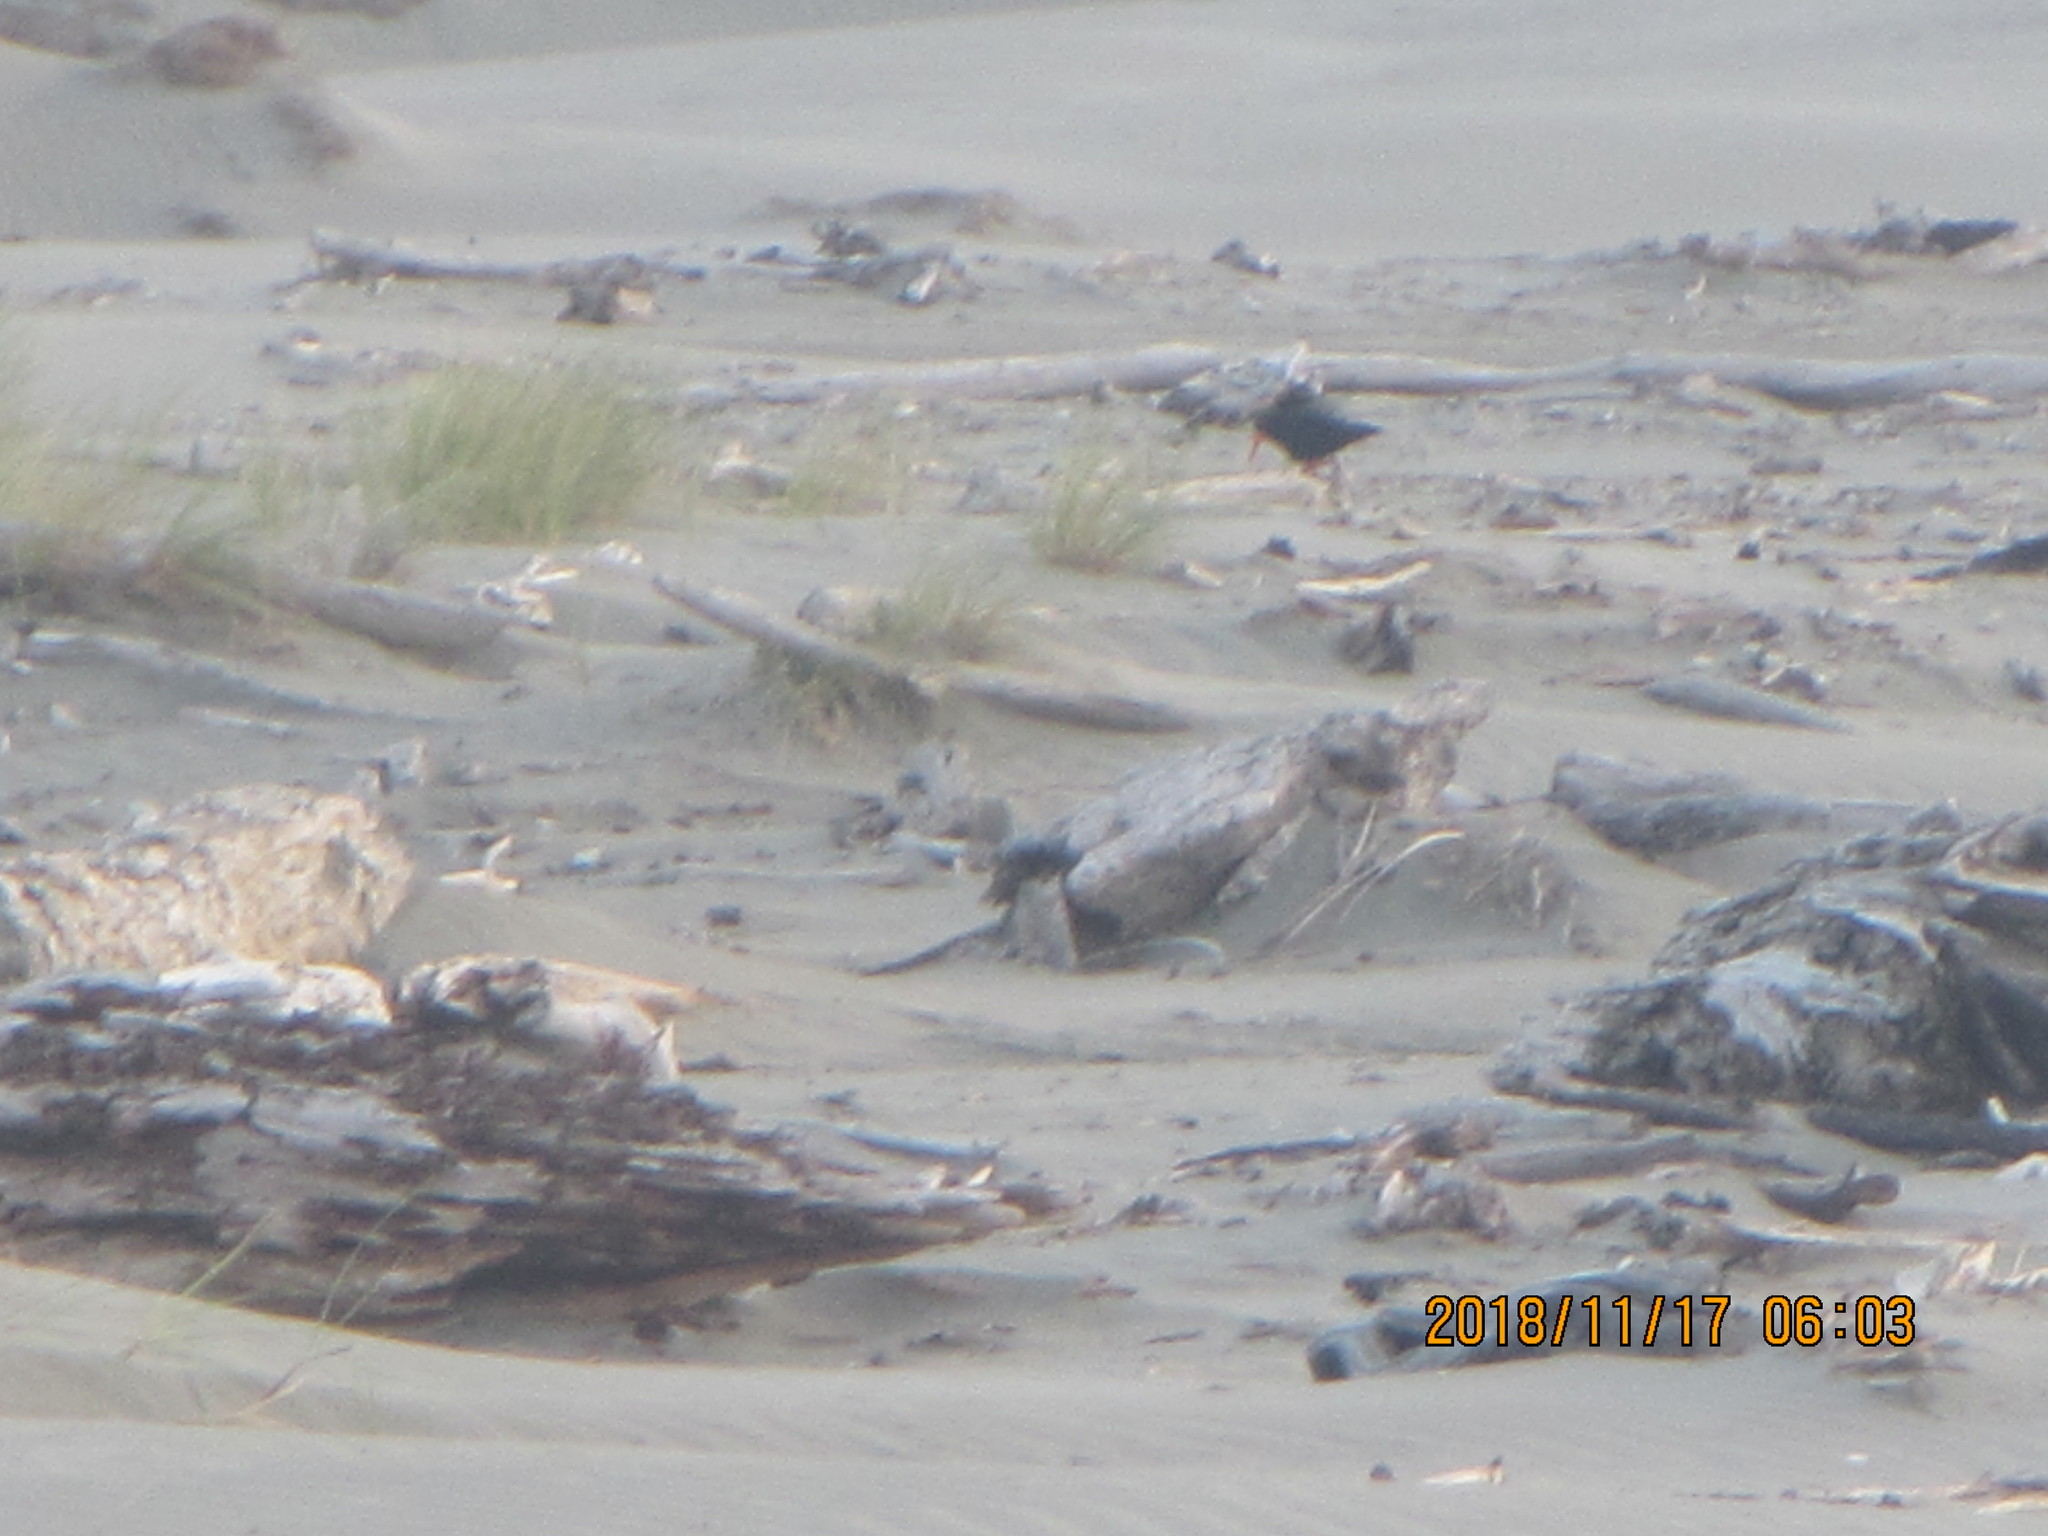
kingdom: Animalia
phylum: Chordata
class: Aves
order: Charadriiformes
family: Haematopodidae
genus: Haematopus
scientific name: Haematopus unicolor
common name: Variable oystercatcher
